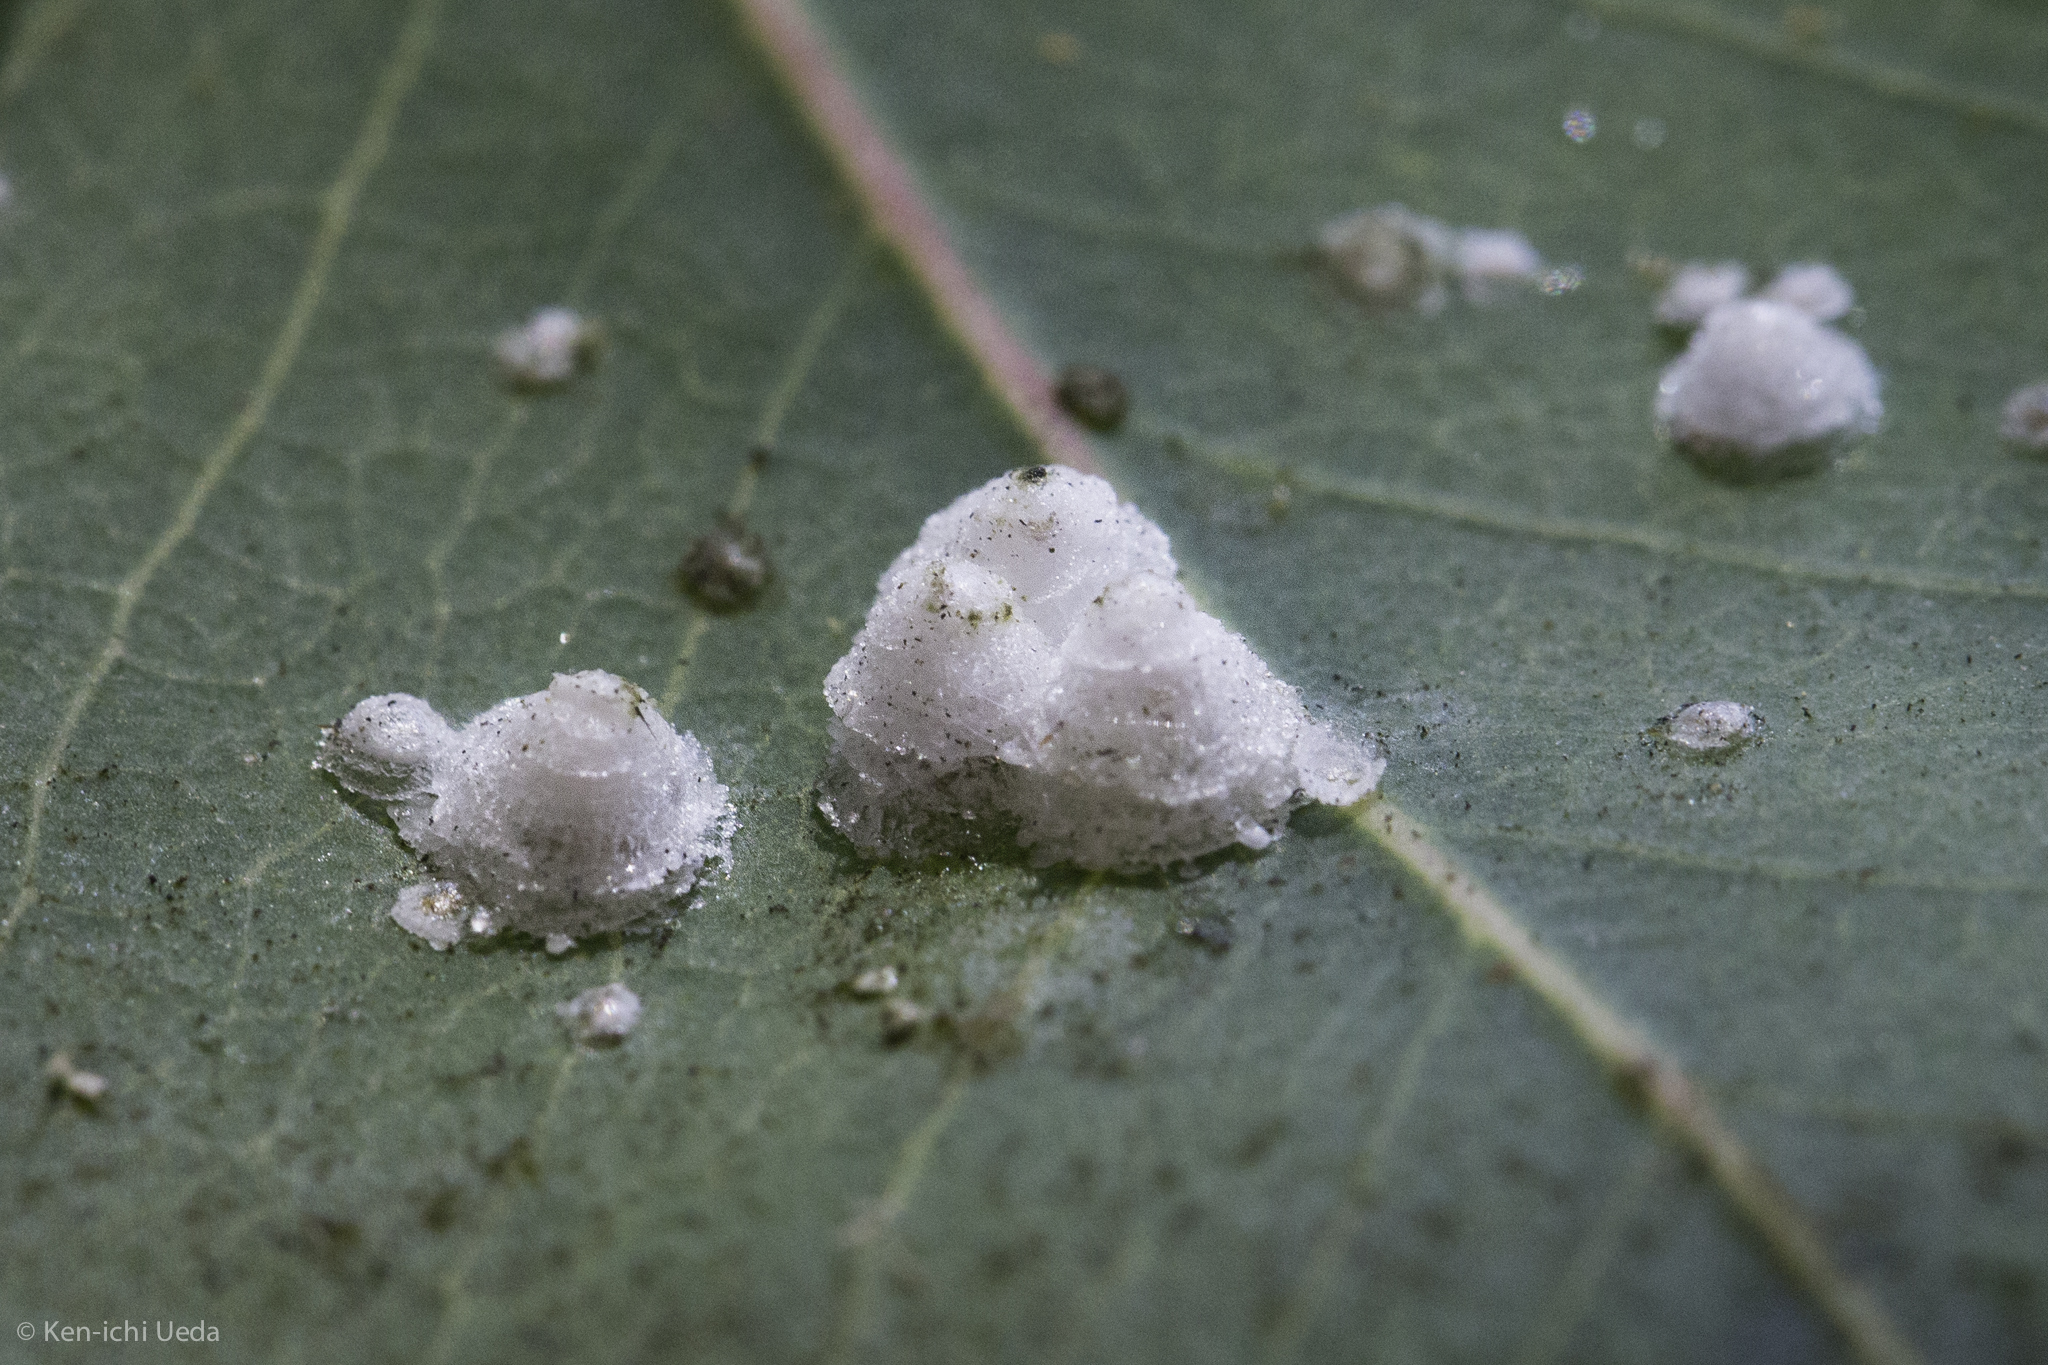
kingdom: Animalia
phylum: Arthropoda
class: Insecta
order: Hemiptera
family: Aphalaridae
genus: Glycaspis
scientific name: Glycaspis brimblecombei
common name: Red gum lerp psyllid
